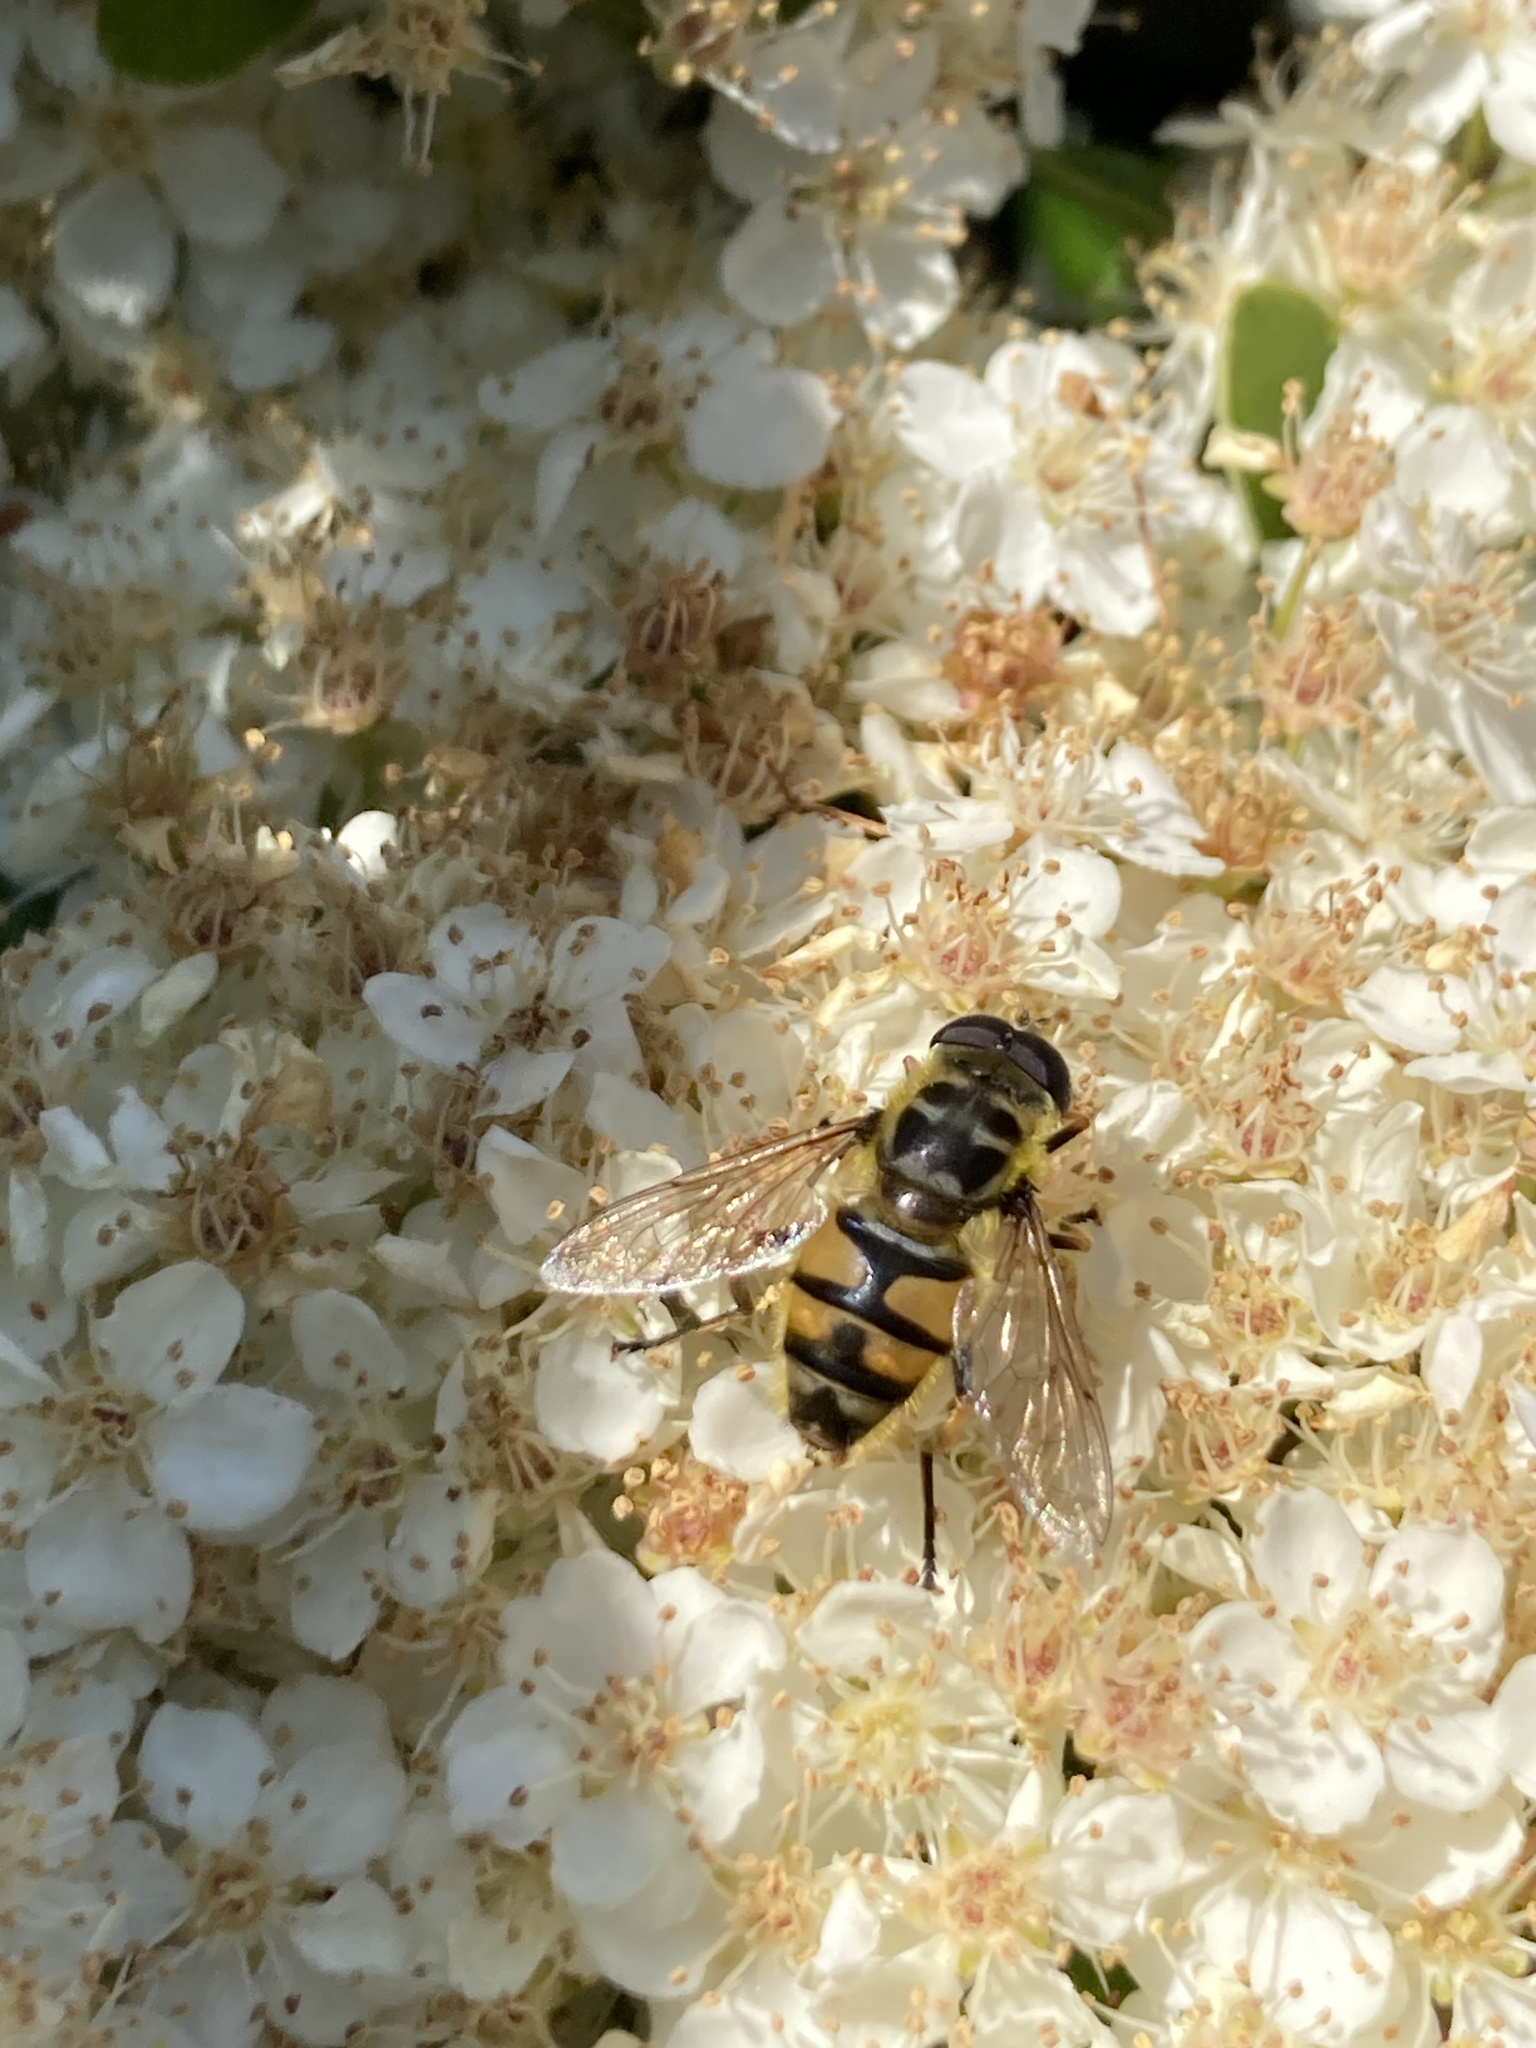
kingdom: Animalia
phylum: Arthropoda
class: Insecta
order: Diptera
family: Syrphidae
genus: Myathropa
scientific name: Myathropa florea
